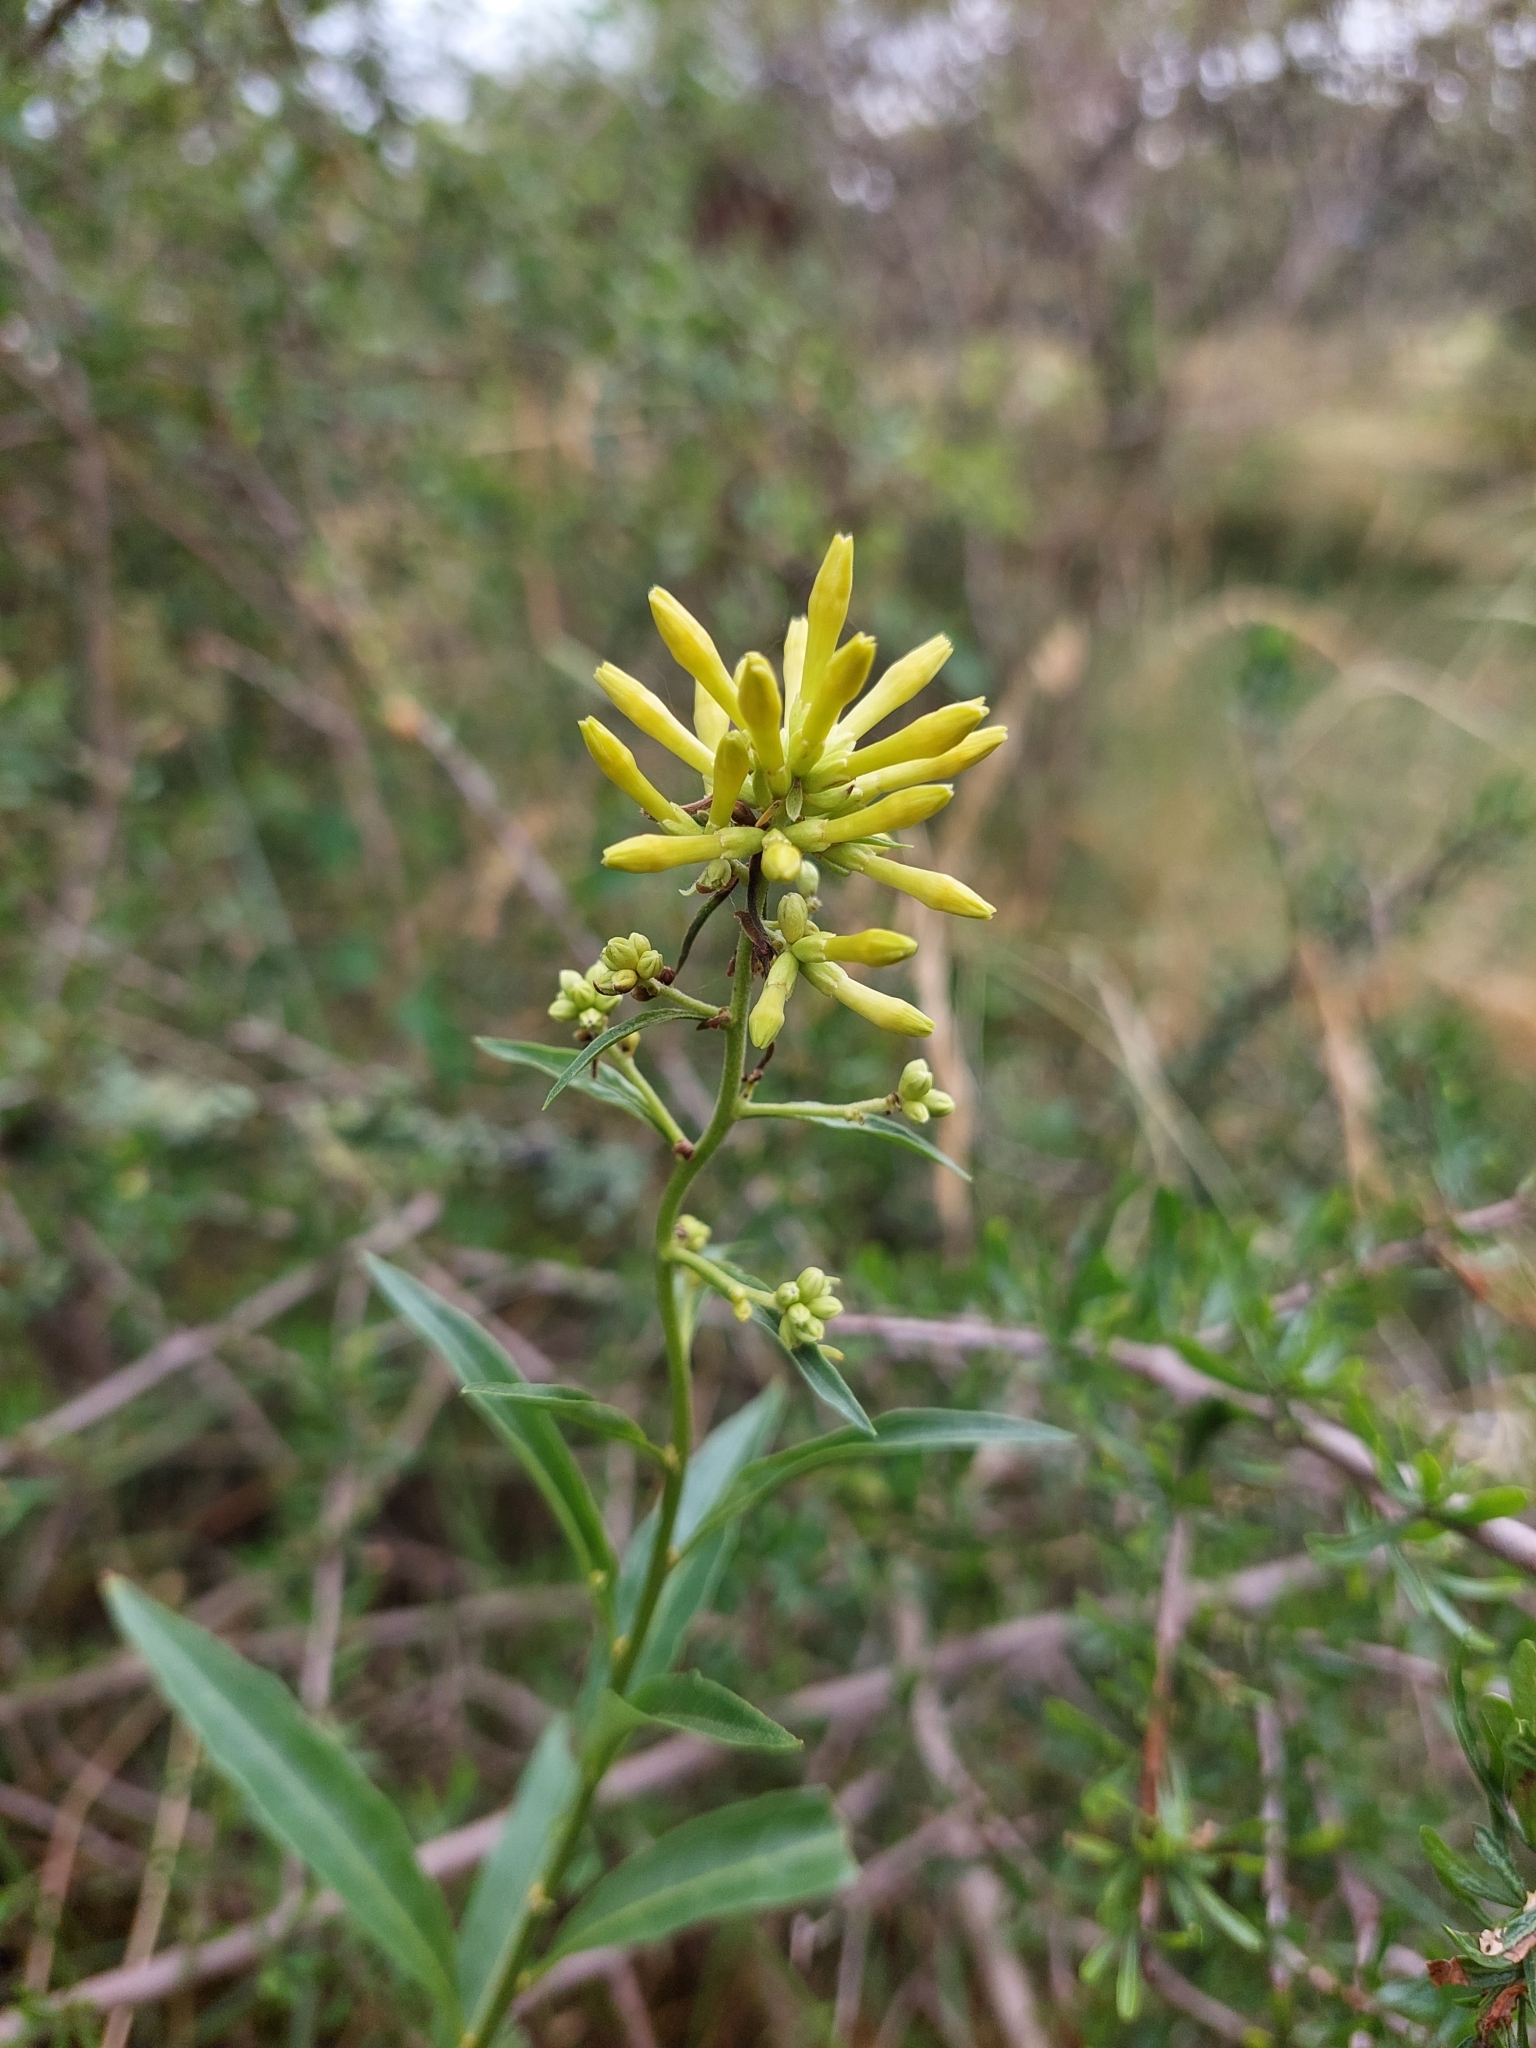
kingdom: Plantae
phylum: Tracheophyta
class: Magnoliopsida
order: Solanales
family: Solanaceae
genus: Cestrum
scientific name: Cestrum parqui
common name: Chilean cestrum
